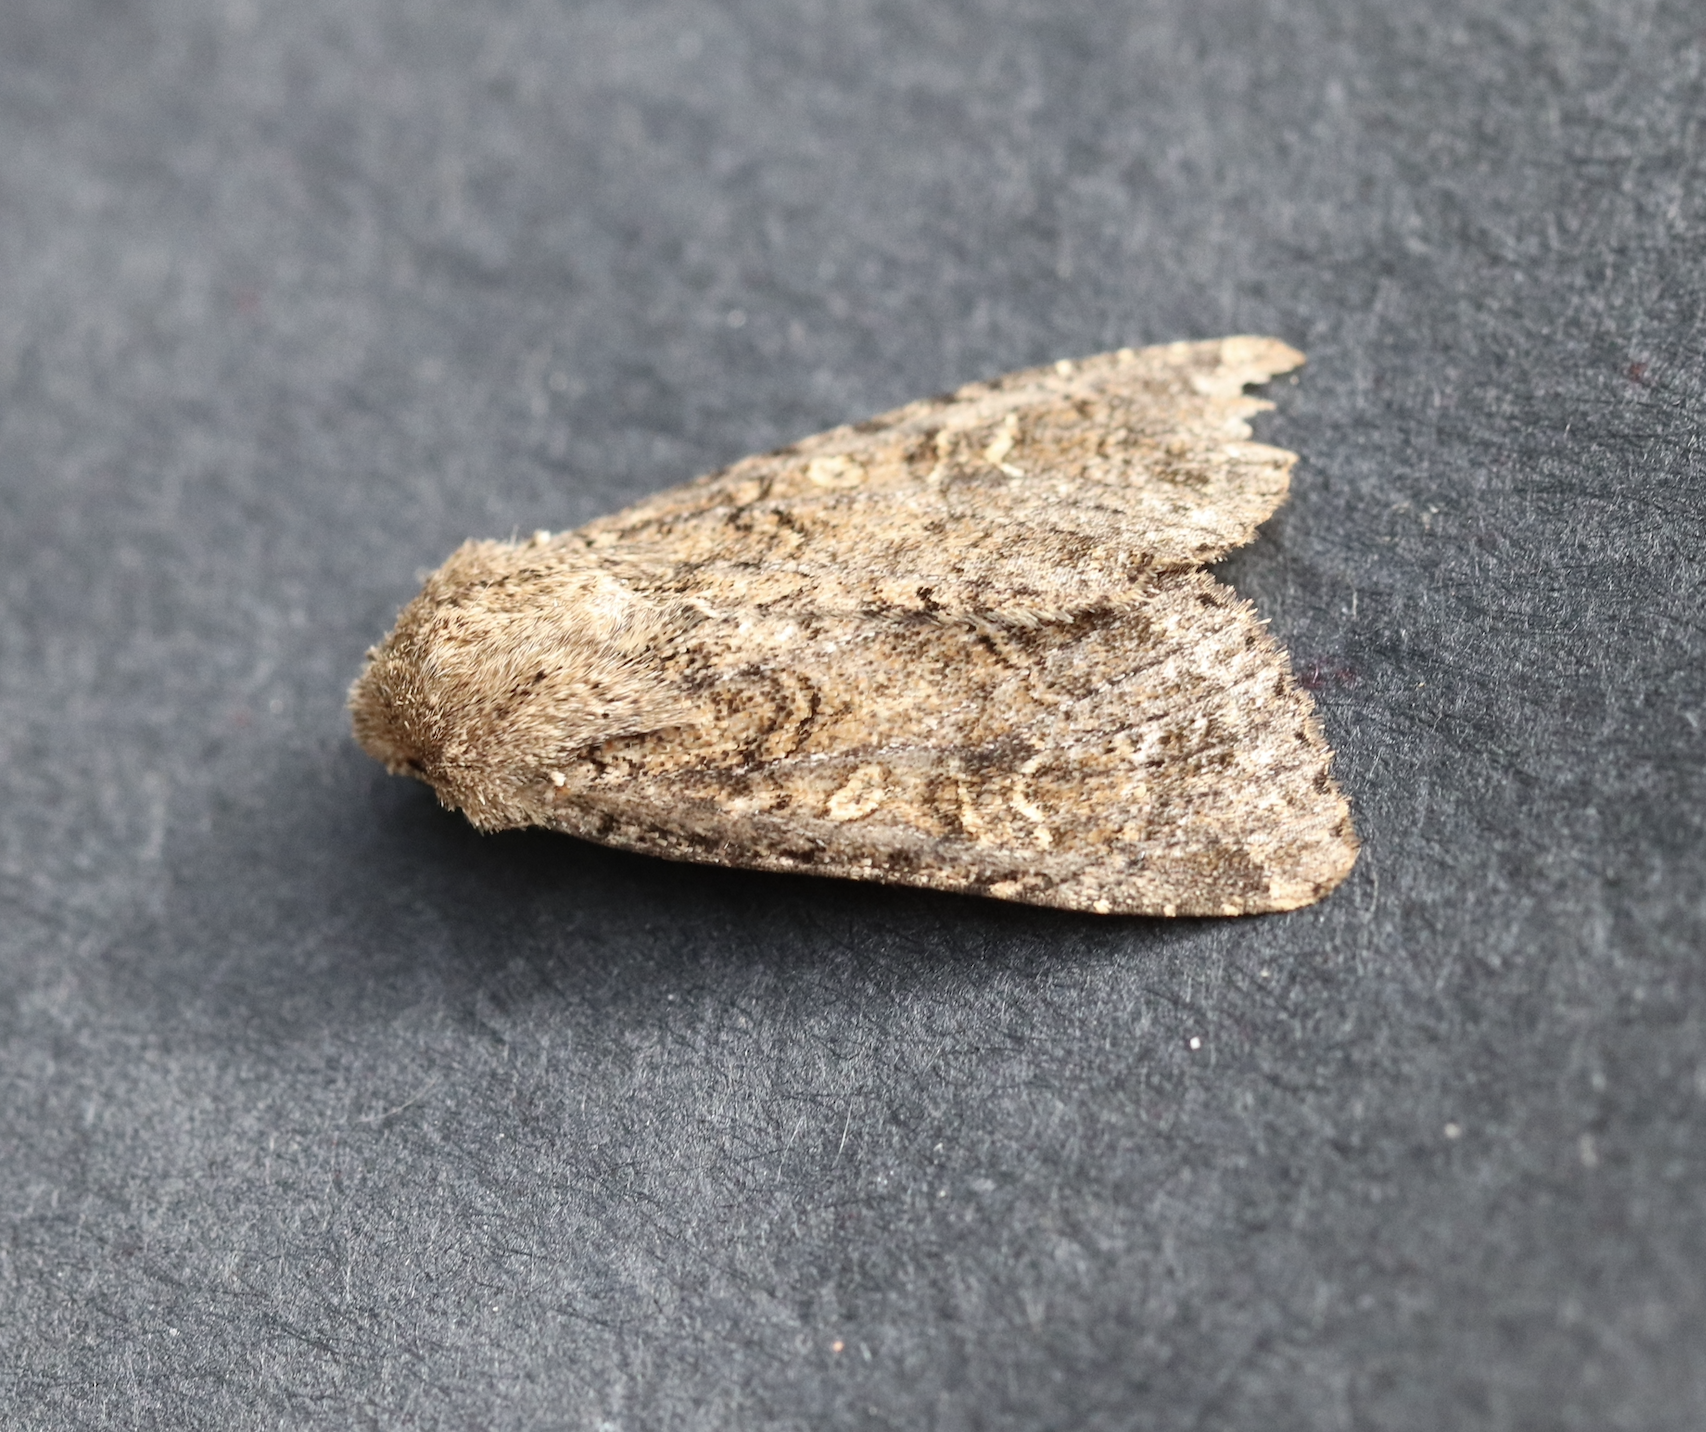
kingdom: Animalia
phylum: Arthropoda
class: Insecta
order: Lepidoptera
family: Noctuidae
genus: Apamea
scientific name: Apamea devastator
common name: Glassy cutworm
